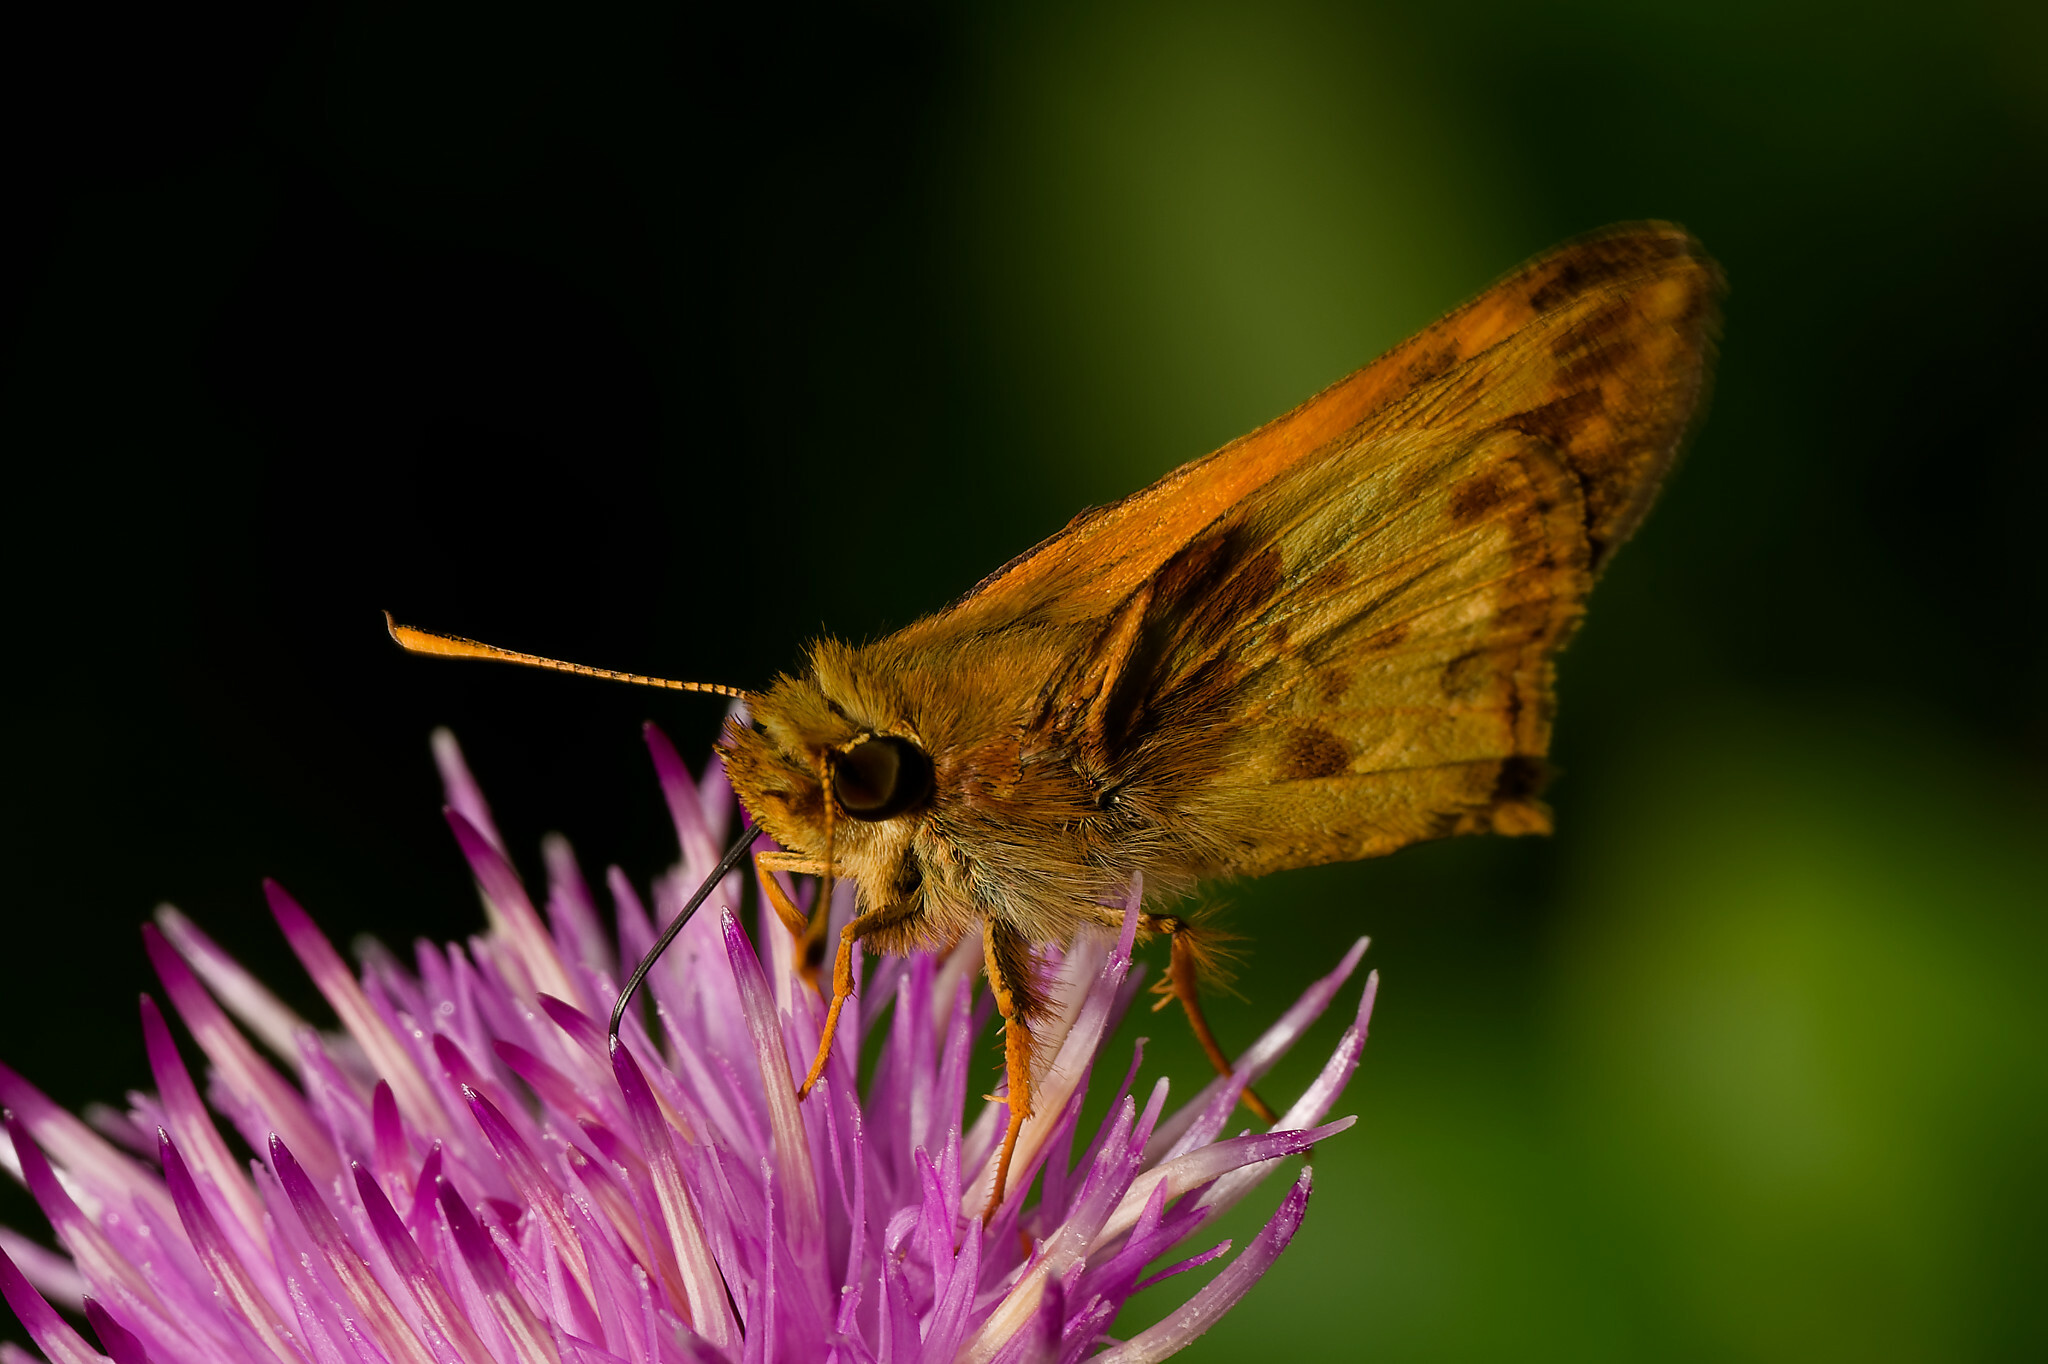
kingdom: Animalia
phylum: Arthropoda
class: Insecta
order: Lepidoptera
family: Hesperiidae
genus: Lon
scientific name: Lon zabulon
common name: Zabulon skipper
